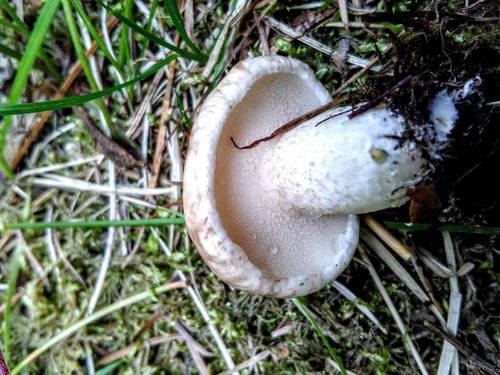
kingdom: Fungi
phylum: Basidiomycota
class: Agaricomycetes
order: Boletales
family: Suillaceae
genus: Suillus
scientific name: Suillus placidus
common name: Slippery white bolete
